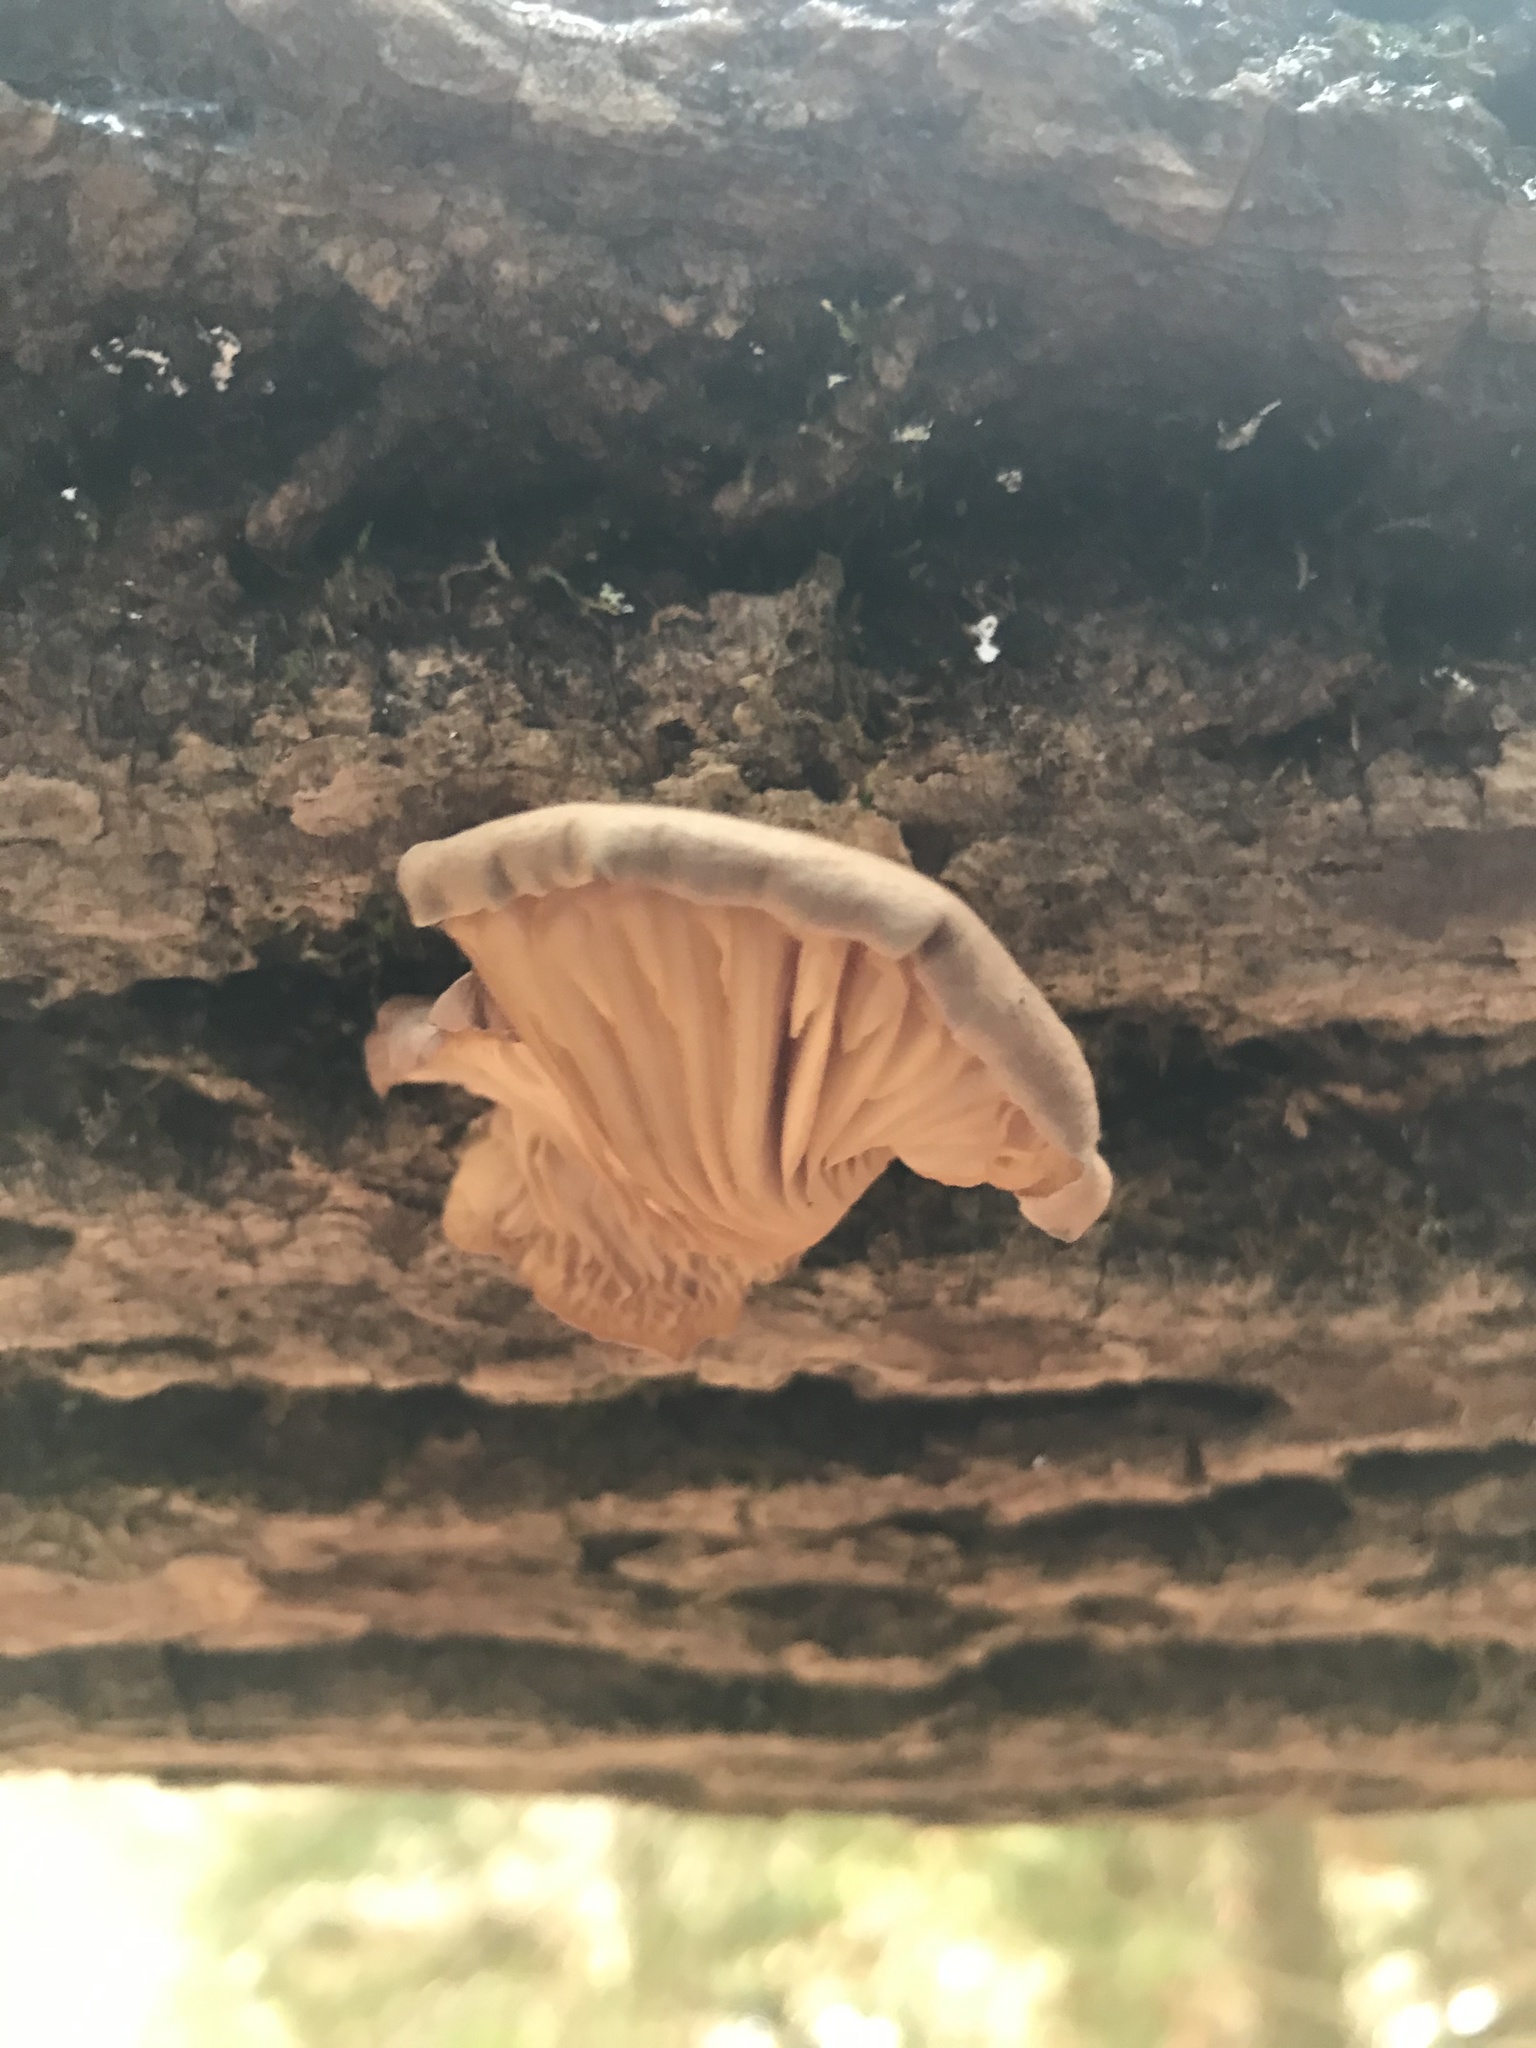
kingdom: Fungi
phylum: Basidiomycota
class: Agaricomycetes
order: Agaricales
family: Pleurotaceae
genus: Pleurotus
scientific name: Pleurotus ostreatus
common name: Oyster mushroom
